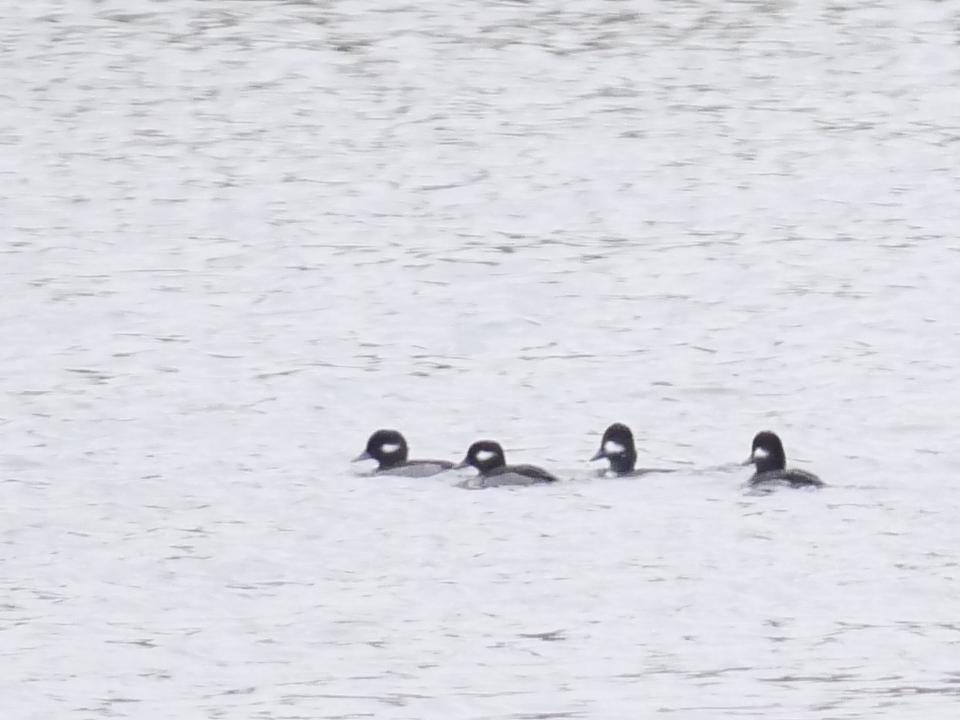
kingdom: Animalia
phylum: Chordata
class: Aves
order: Anseriformes
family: Anatidae
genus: Bucephala
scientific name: Bucephala albeola
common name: Bufflehead
